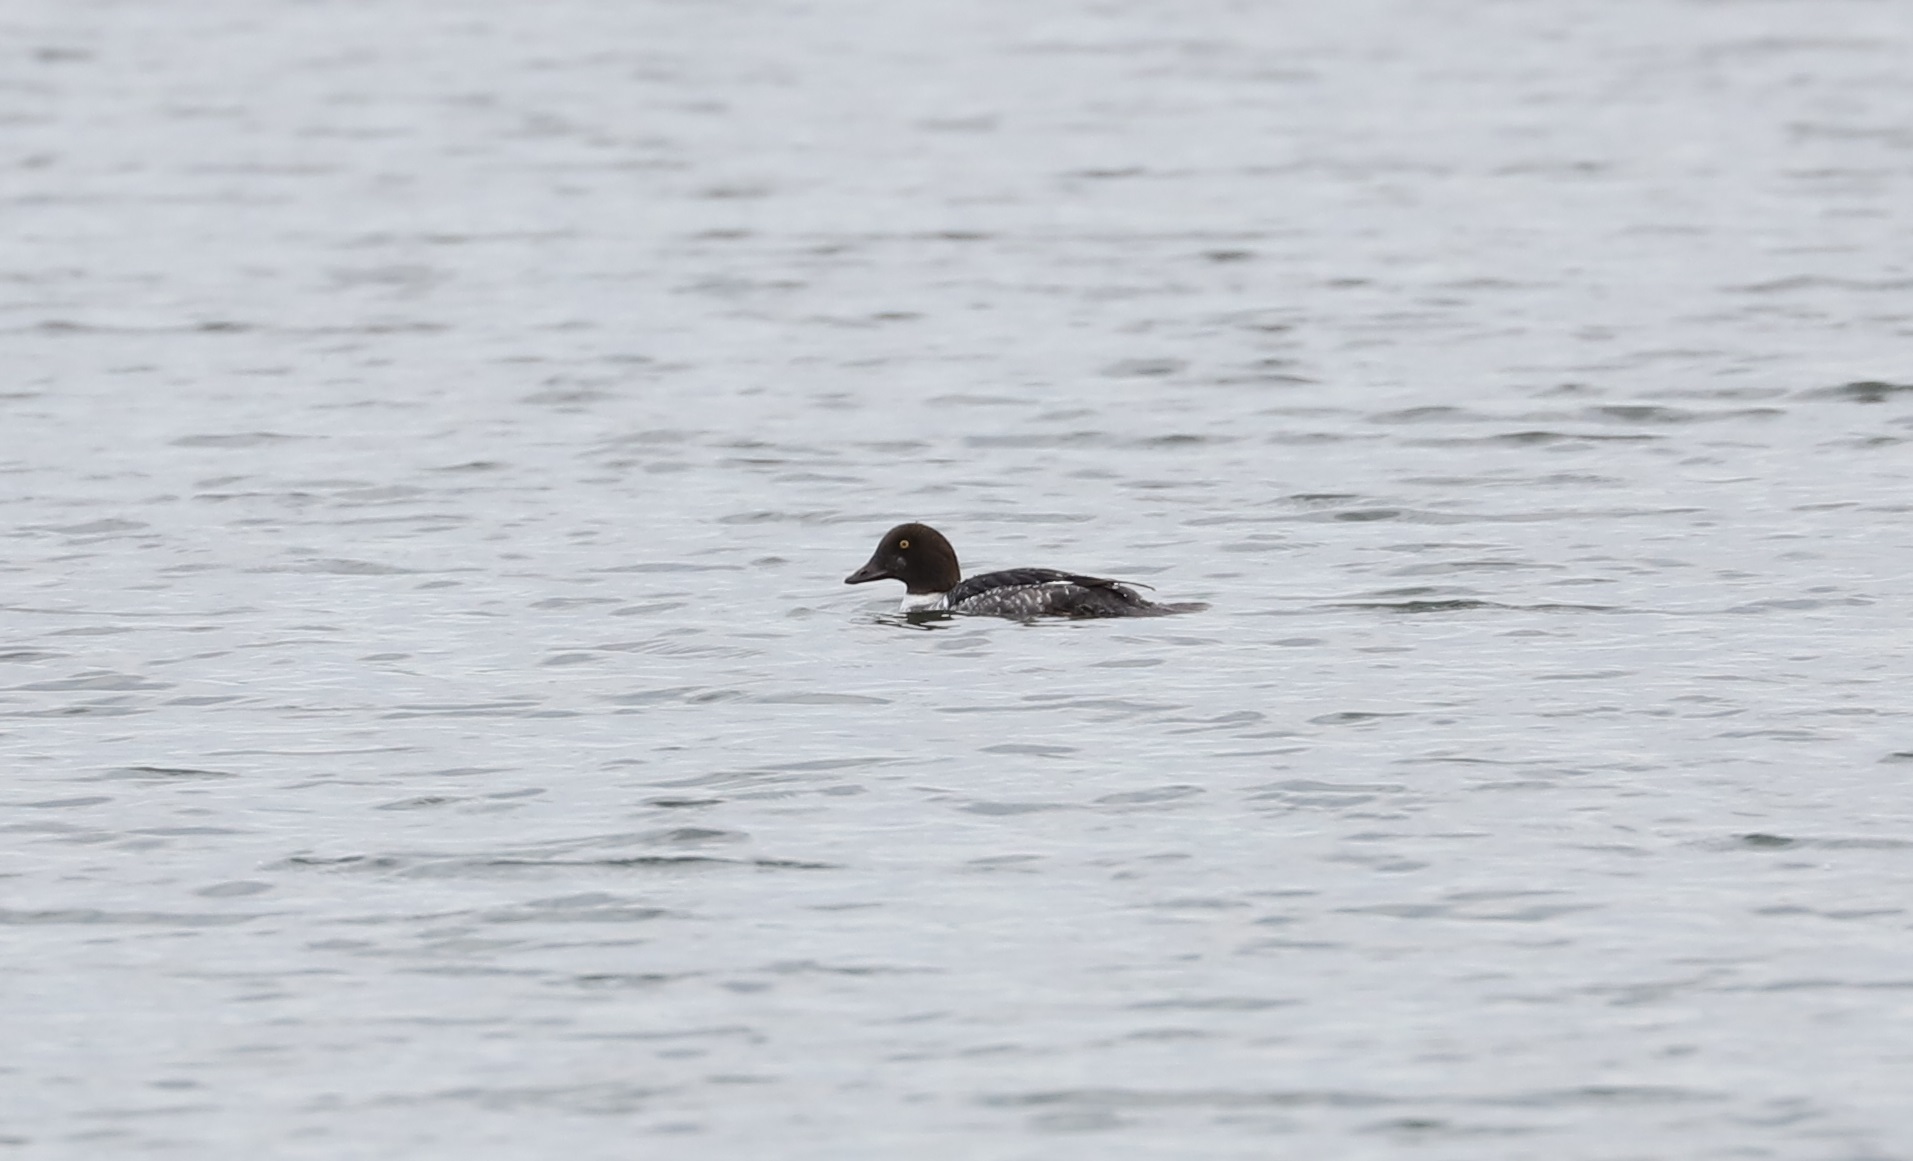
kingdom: Animalia
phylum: Chordata
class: Aves
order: Anseriformes
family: Anatidae
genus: Bucephala
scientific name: Bucephala clangula
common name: Common goldeneye
